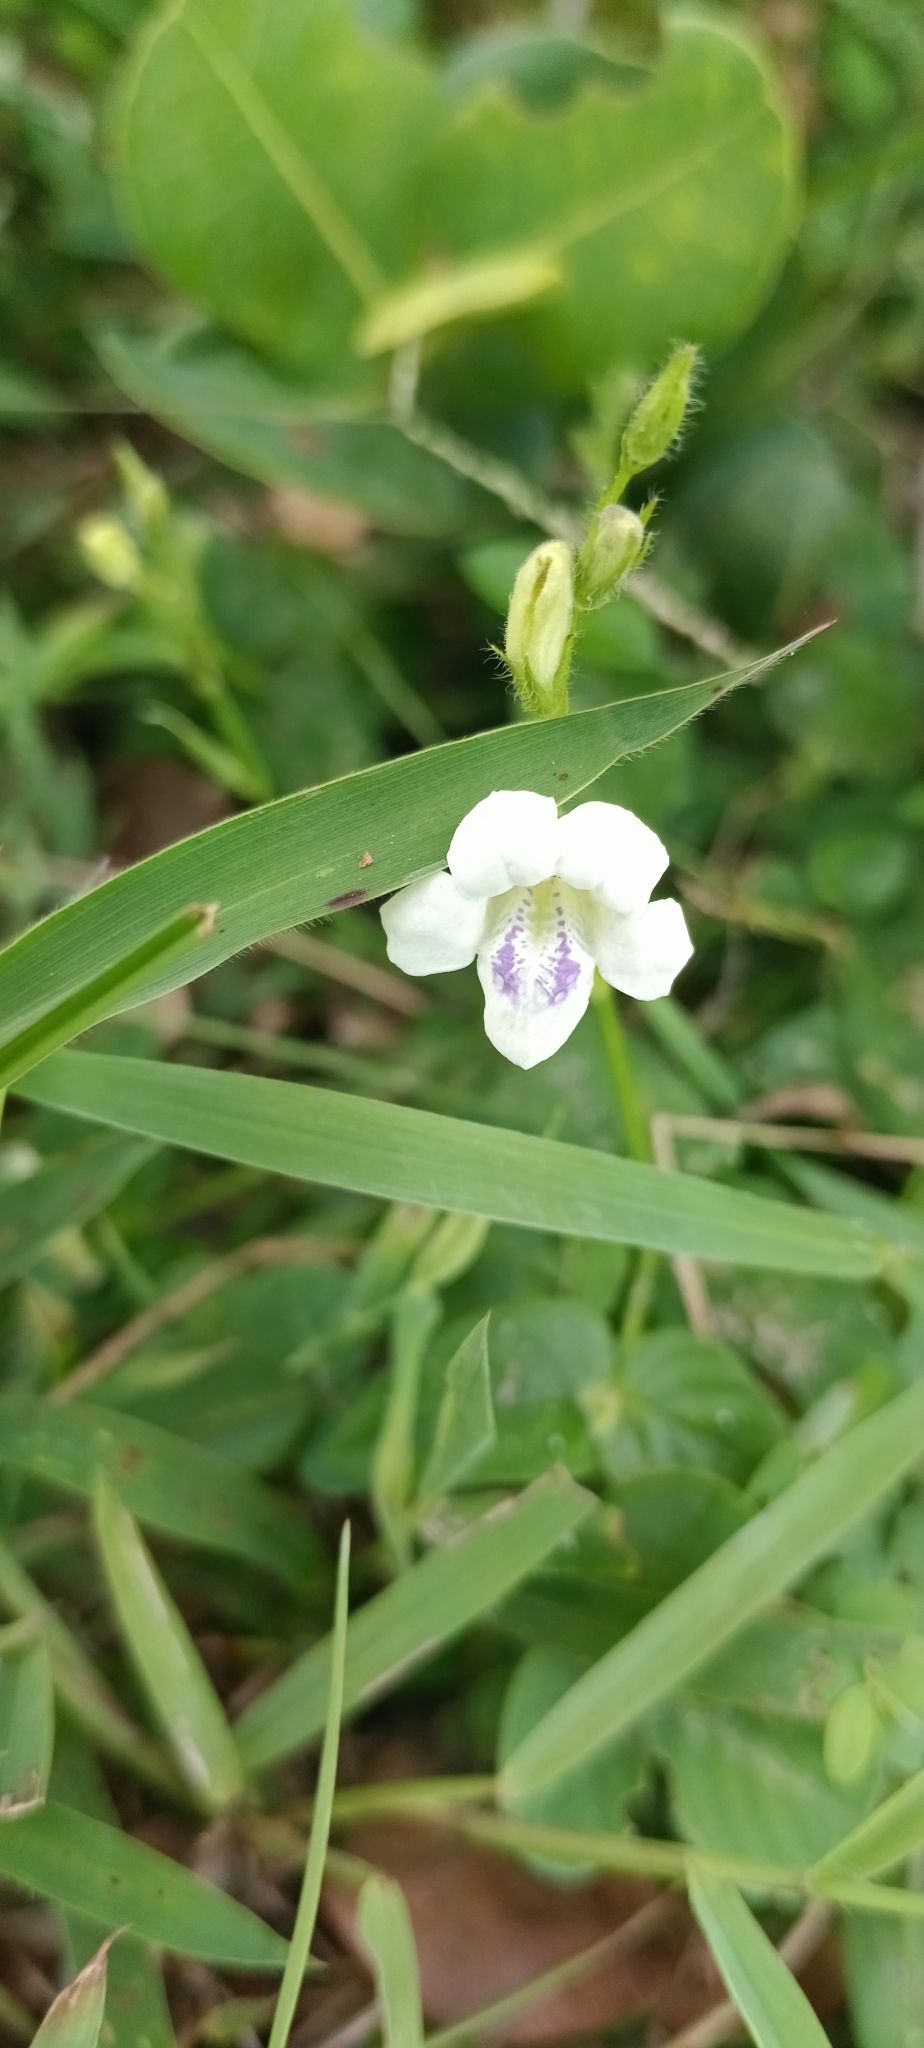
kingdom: Plantae
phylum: Tracheophyta
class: Magnoliopsida
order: Lamiales
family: Acanthaceae
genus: Asystasia
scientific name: Asystasia intrusa
